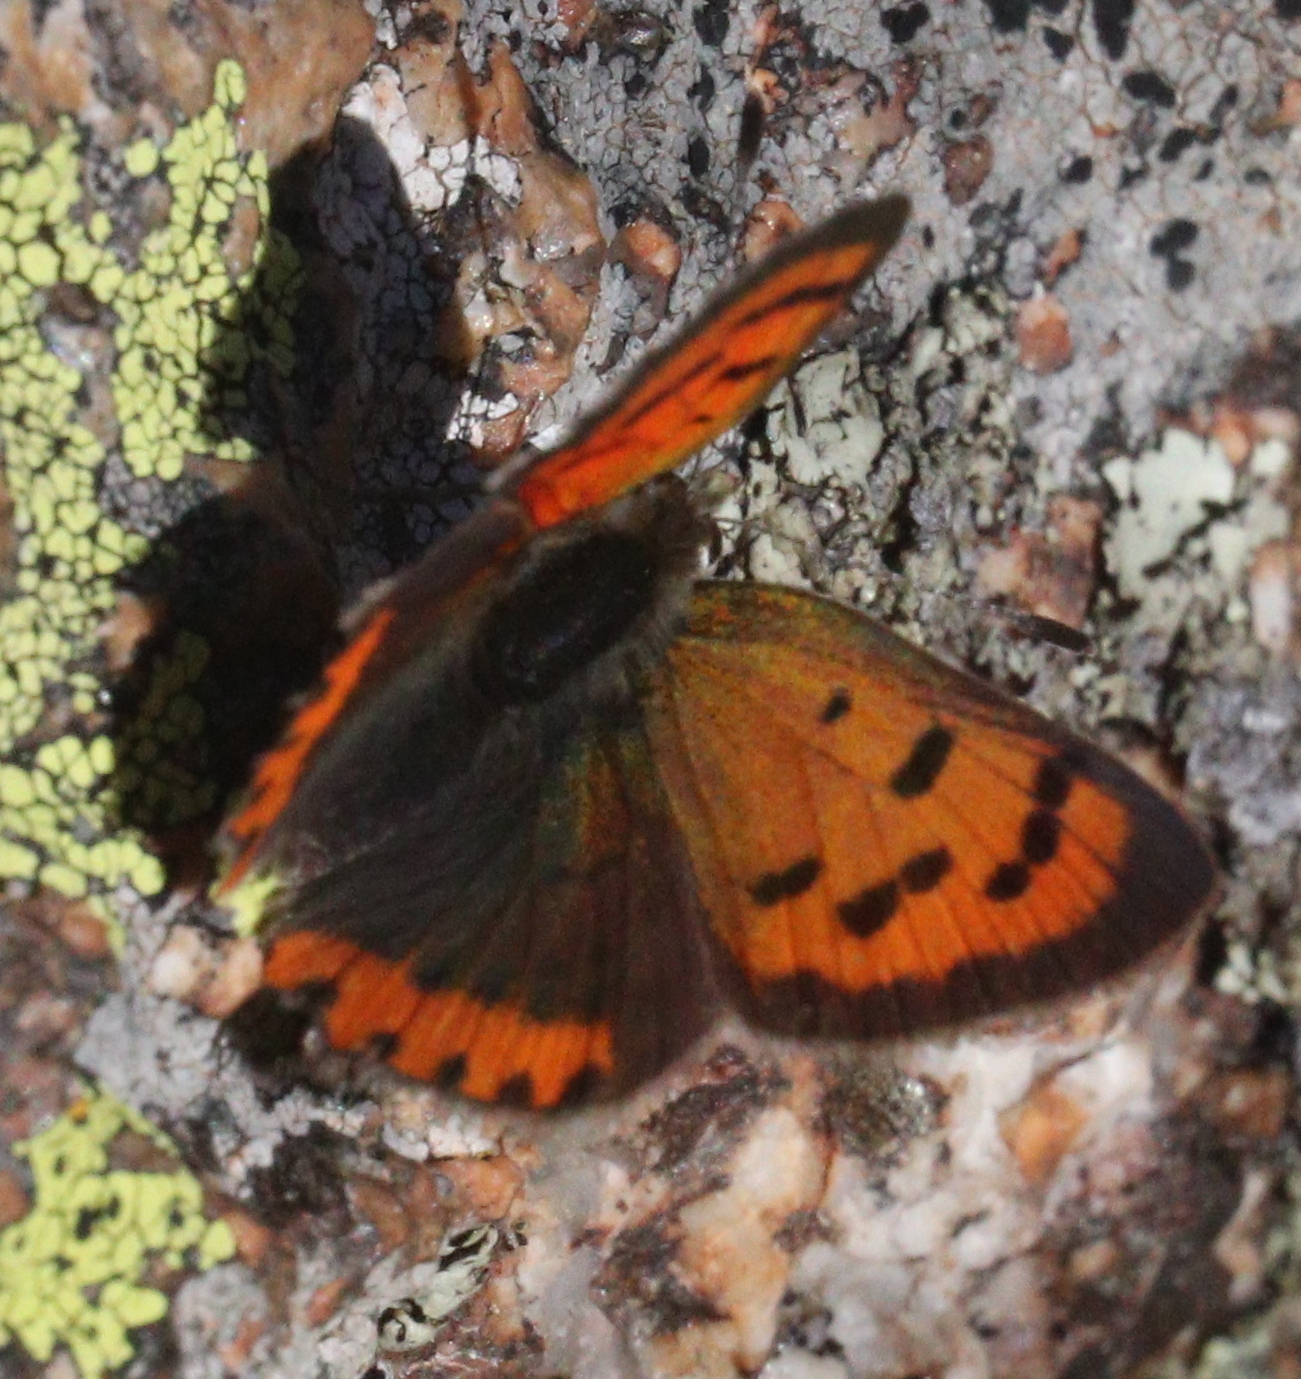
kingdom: Animalia
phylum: Arthropoda
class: Insecta
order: Lepidoptera
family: Lycaenidae
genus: Lycaena
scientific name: Lycaena phlaeas
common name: Small copper
